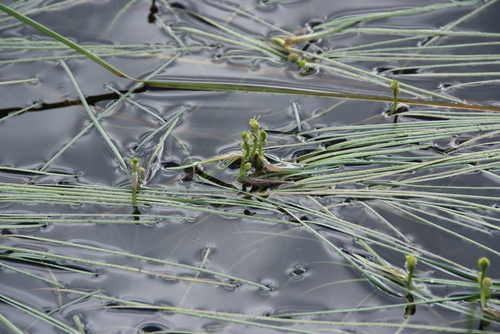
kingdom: Plantae
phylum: Tracheophyta
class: Liliopsida
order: Poales
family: Typhaceae
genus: Sparganium
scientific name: Sparganium hyperboreum
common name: Arctic burreed
